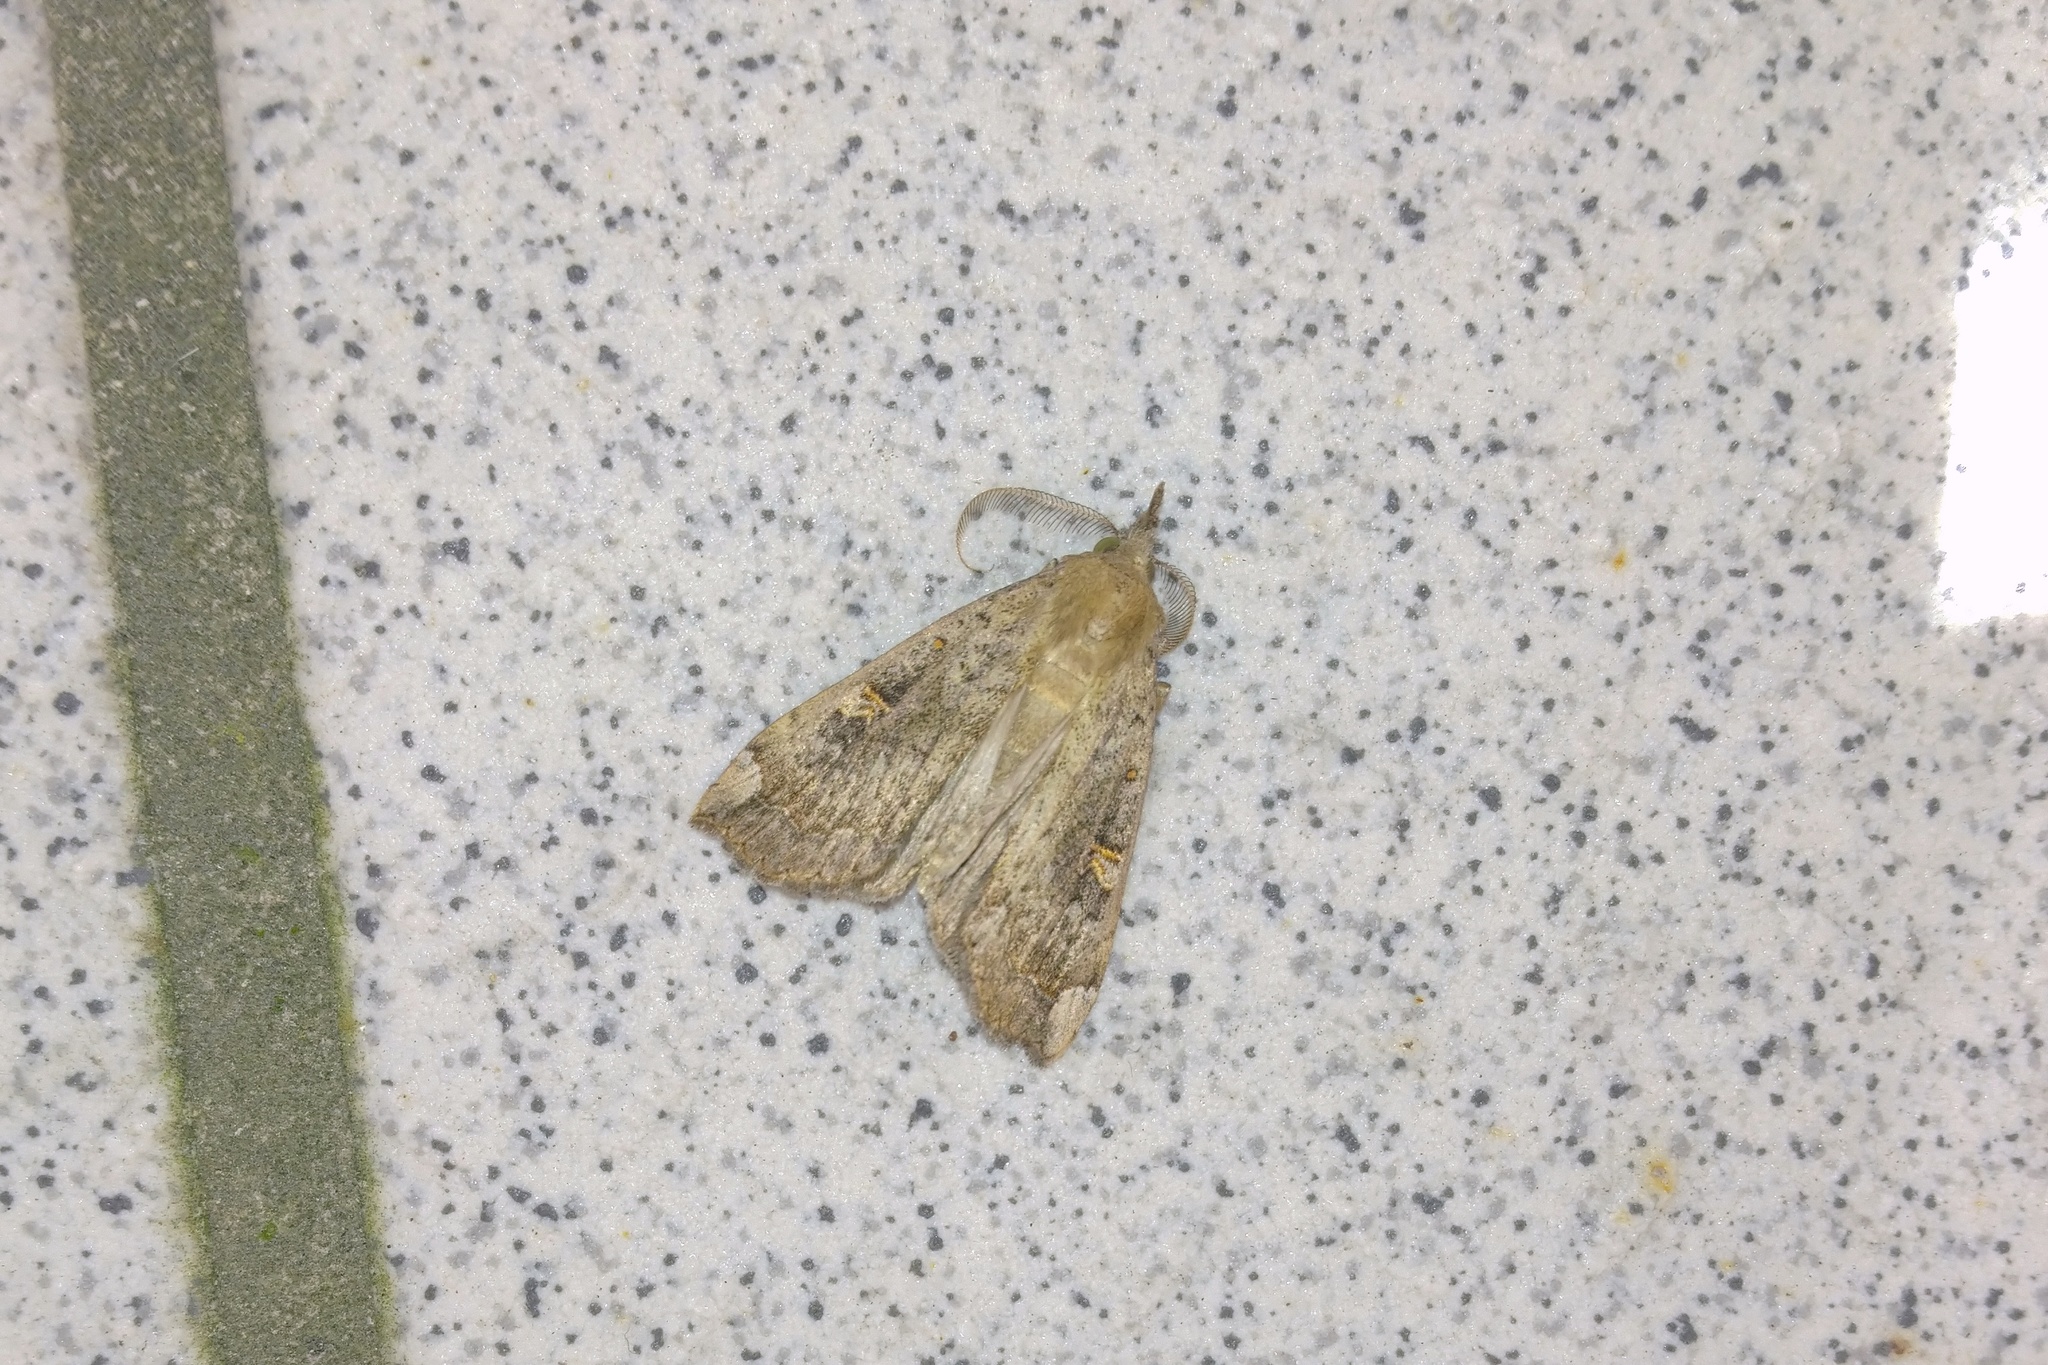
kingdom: Animalia
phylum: Arthropoda
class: Insecta
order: Lepidoptera
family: Erebidae
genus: Rhapsa
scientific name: Rhapsa scotosialis
